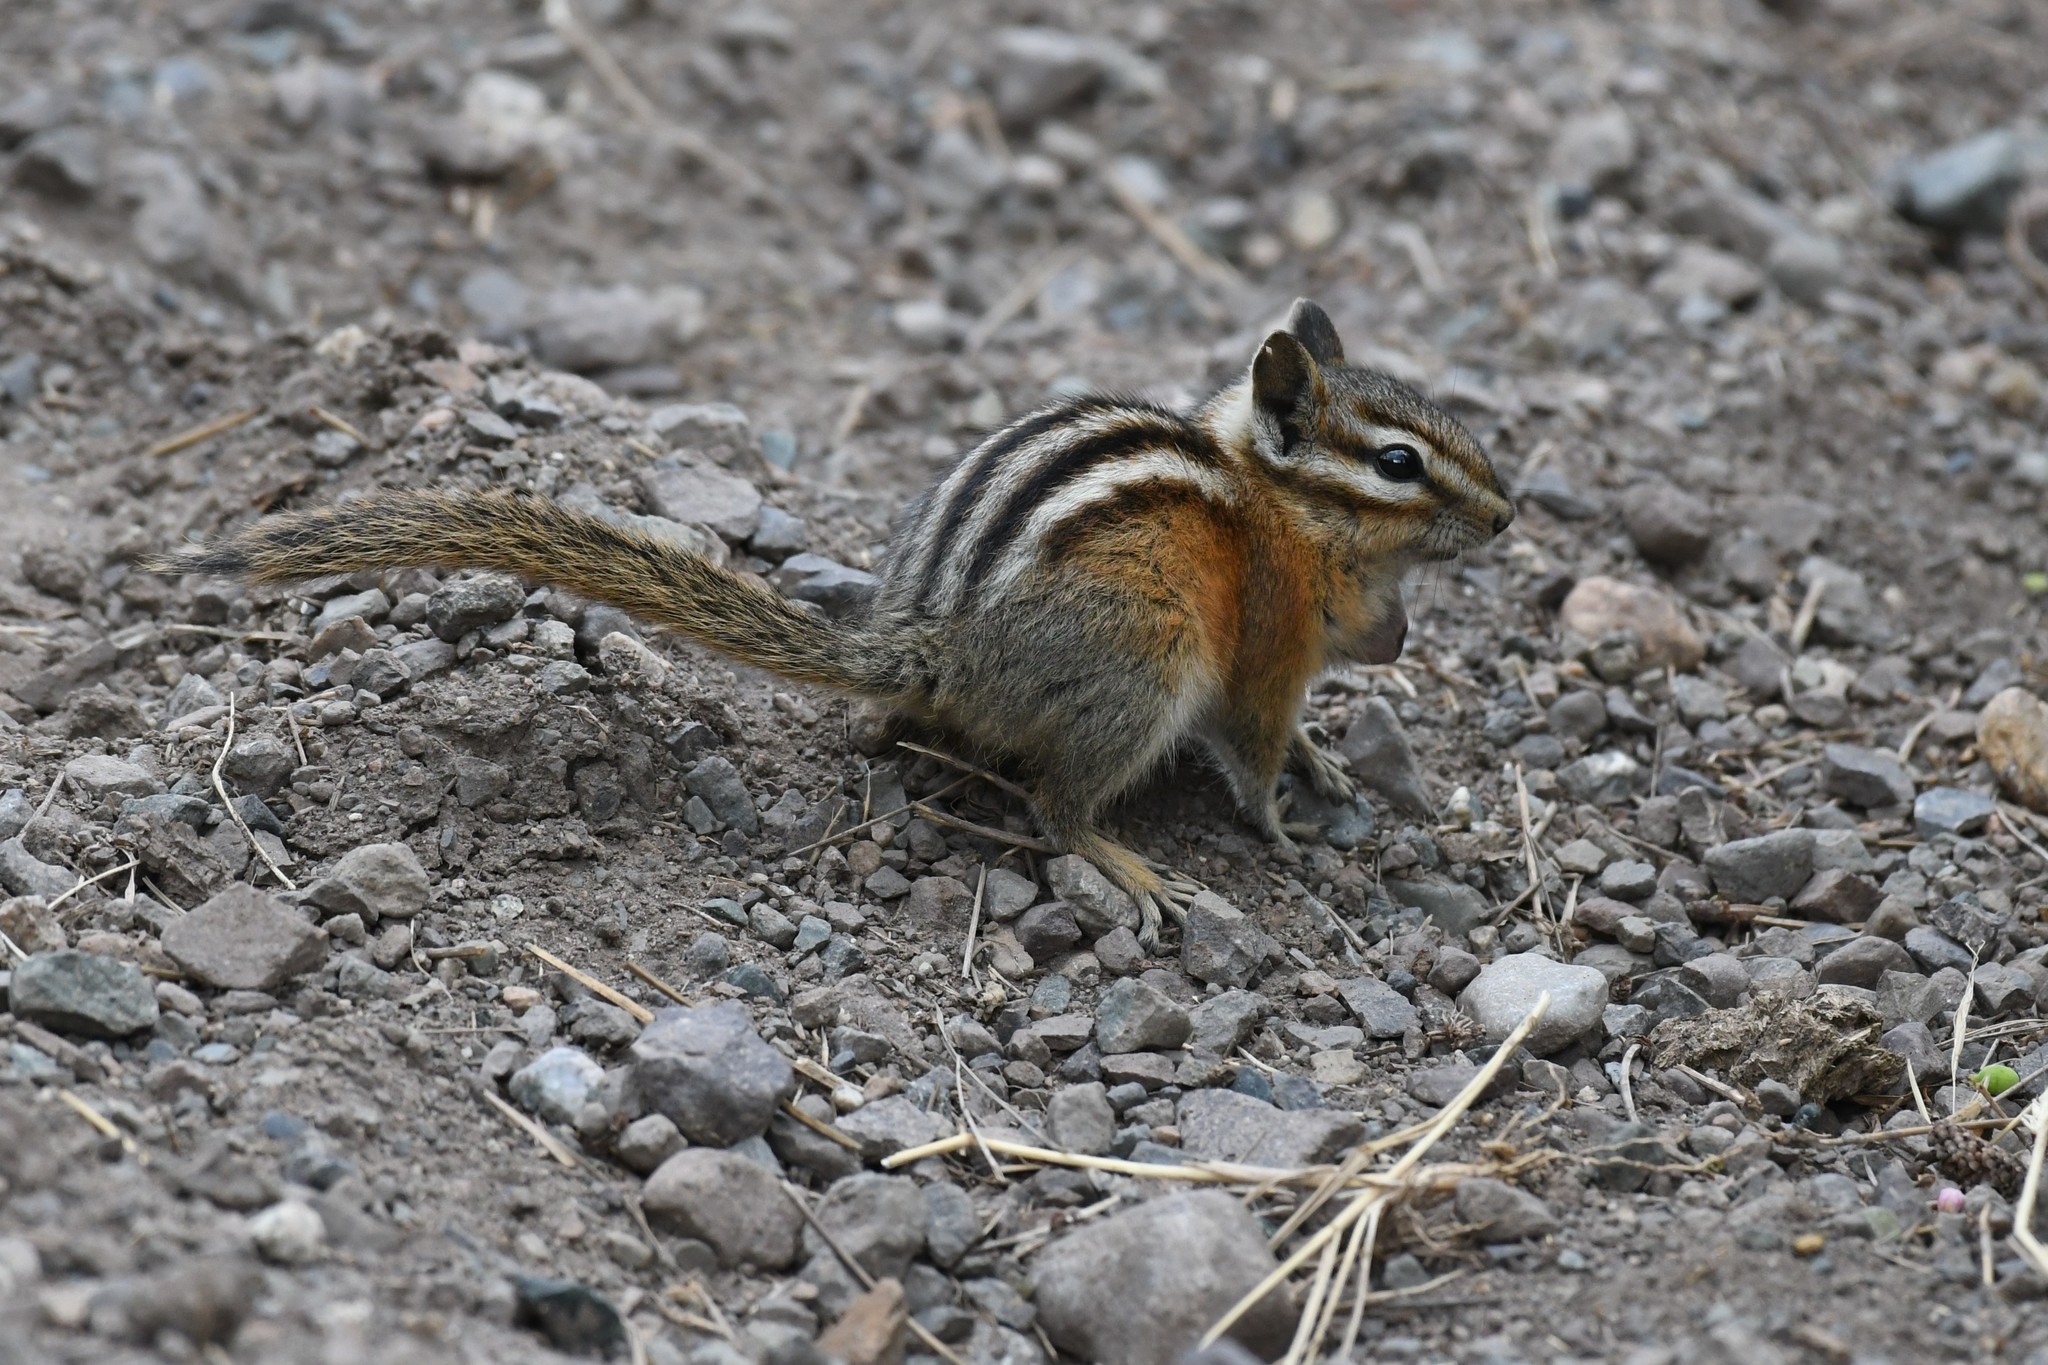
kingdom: Animalia
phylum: Chordata
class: Mammalia
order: Rodentia
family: Sciuridae
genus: Tamias
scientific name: Tamias amoenus
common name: Yellow-pine chipmunk
